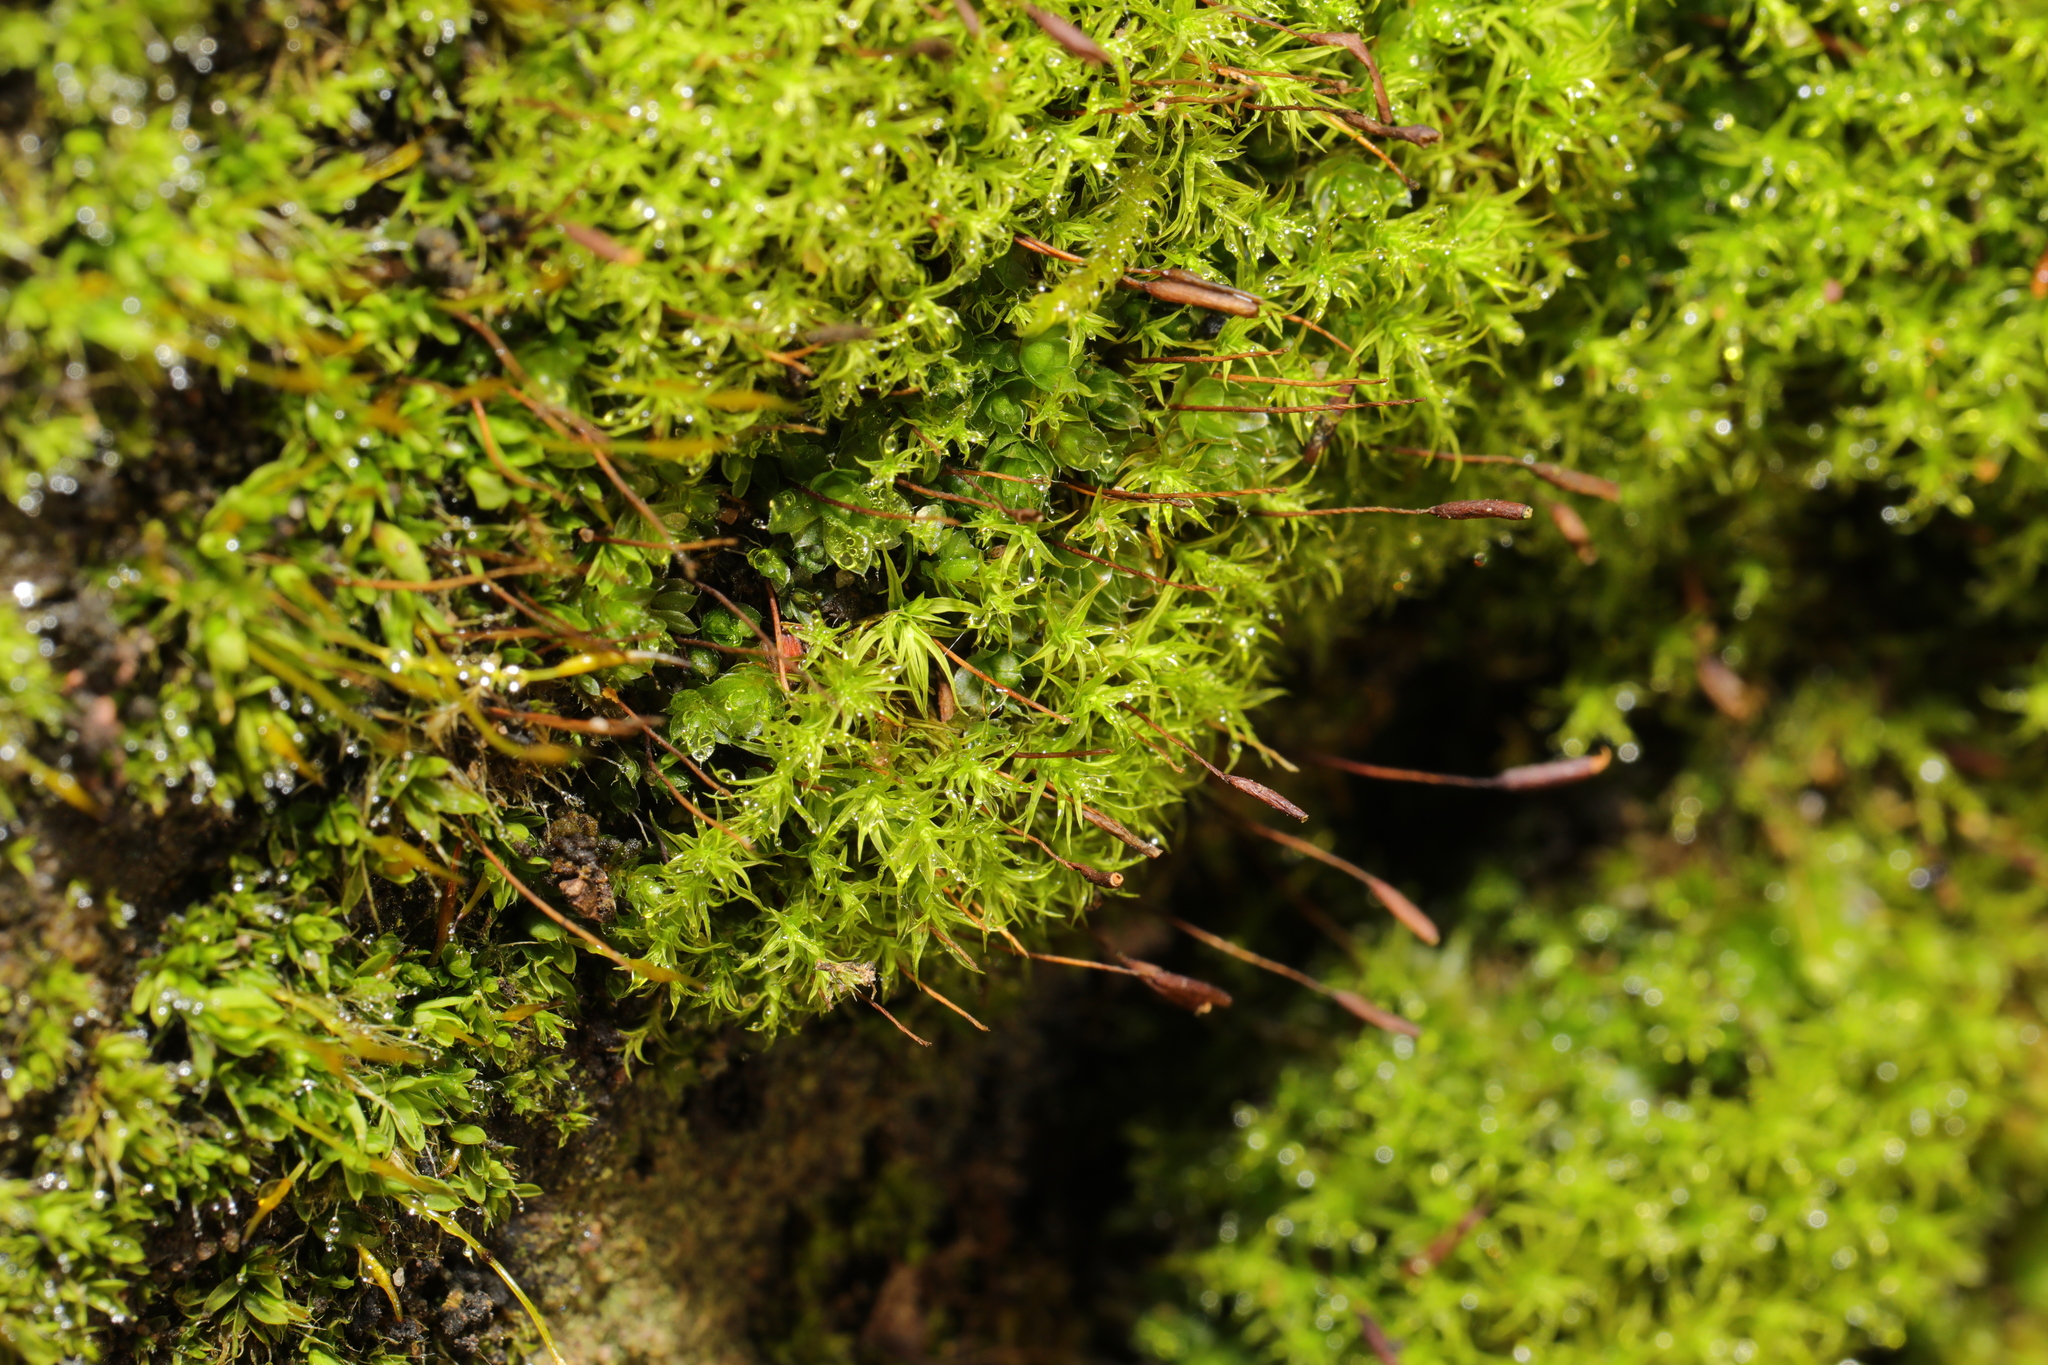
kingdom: Plantae
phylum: Bryophyta
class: Bryopsida
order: Pottiales
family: Pottiaceae
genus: Vinealobryum
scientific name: Vinealobryum insulanum
